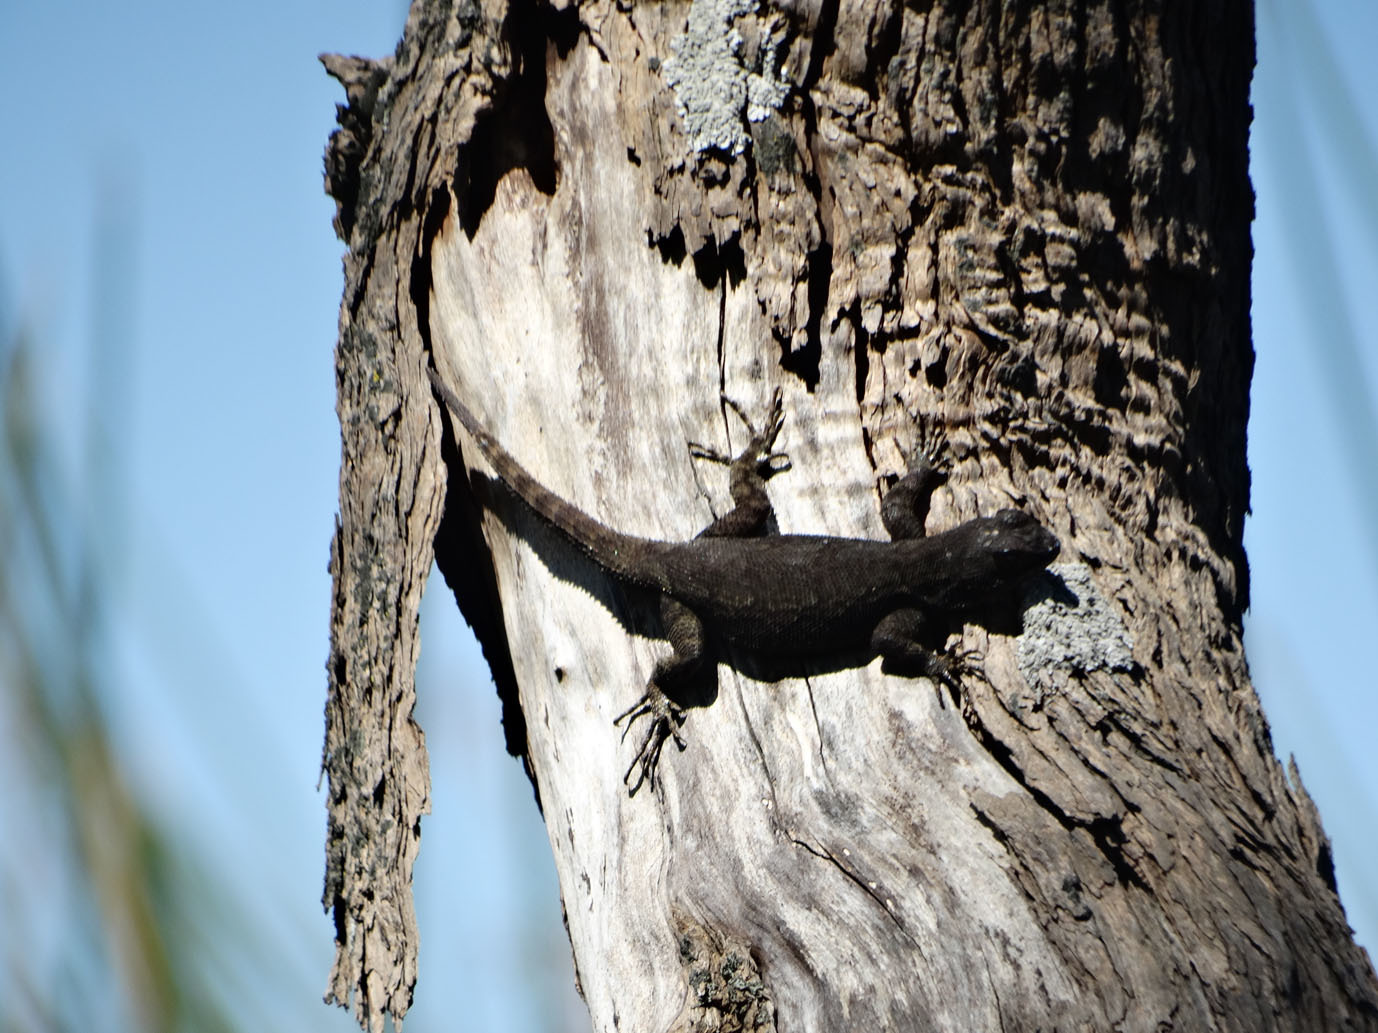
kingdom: Animalia
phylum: Chordata
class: Squamata
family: Phrynosomatidae
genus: Sceloporus
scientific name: Sceloporus grammicus
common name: Mesquite lizard
